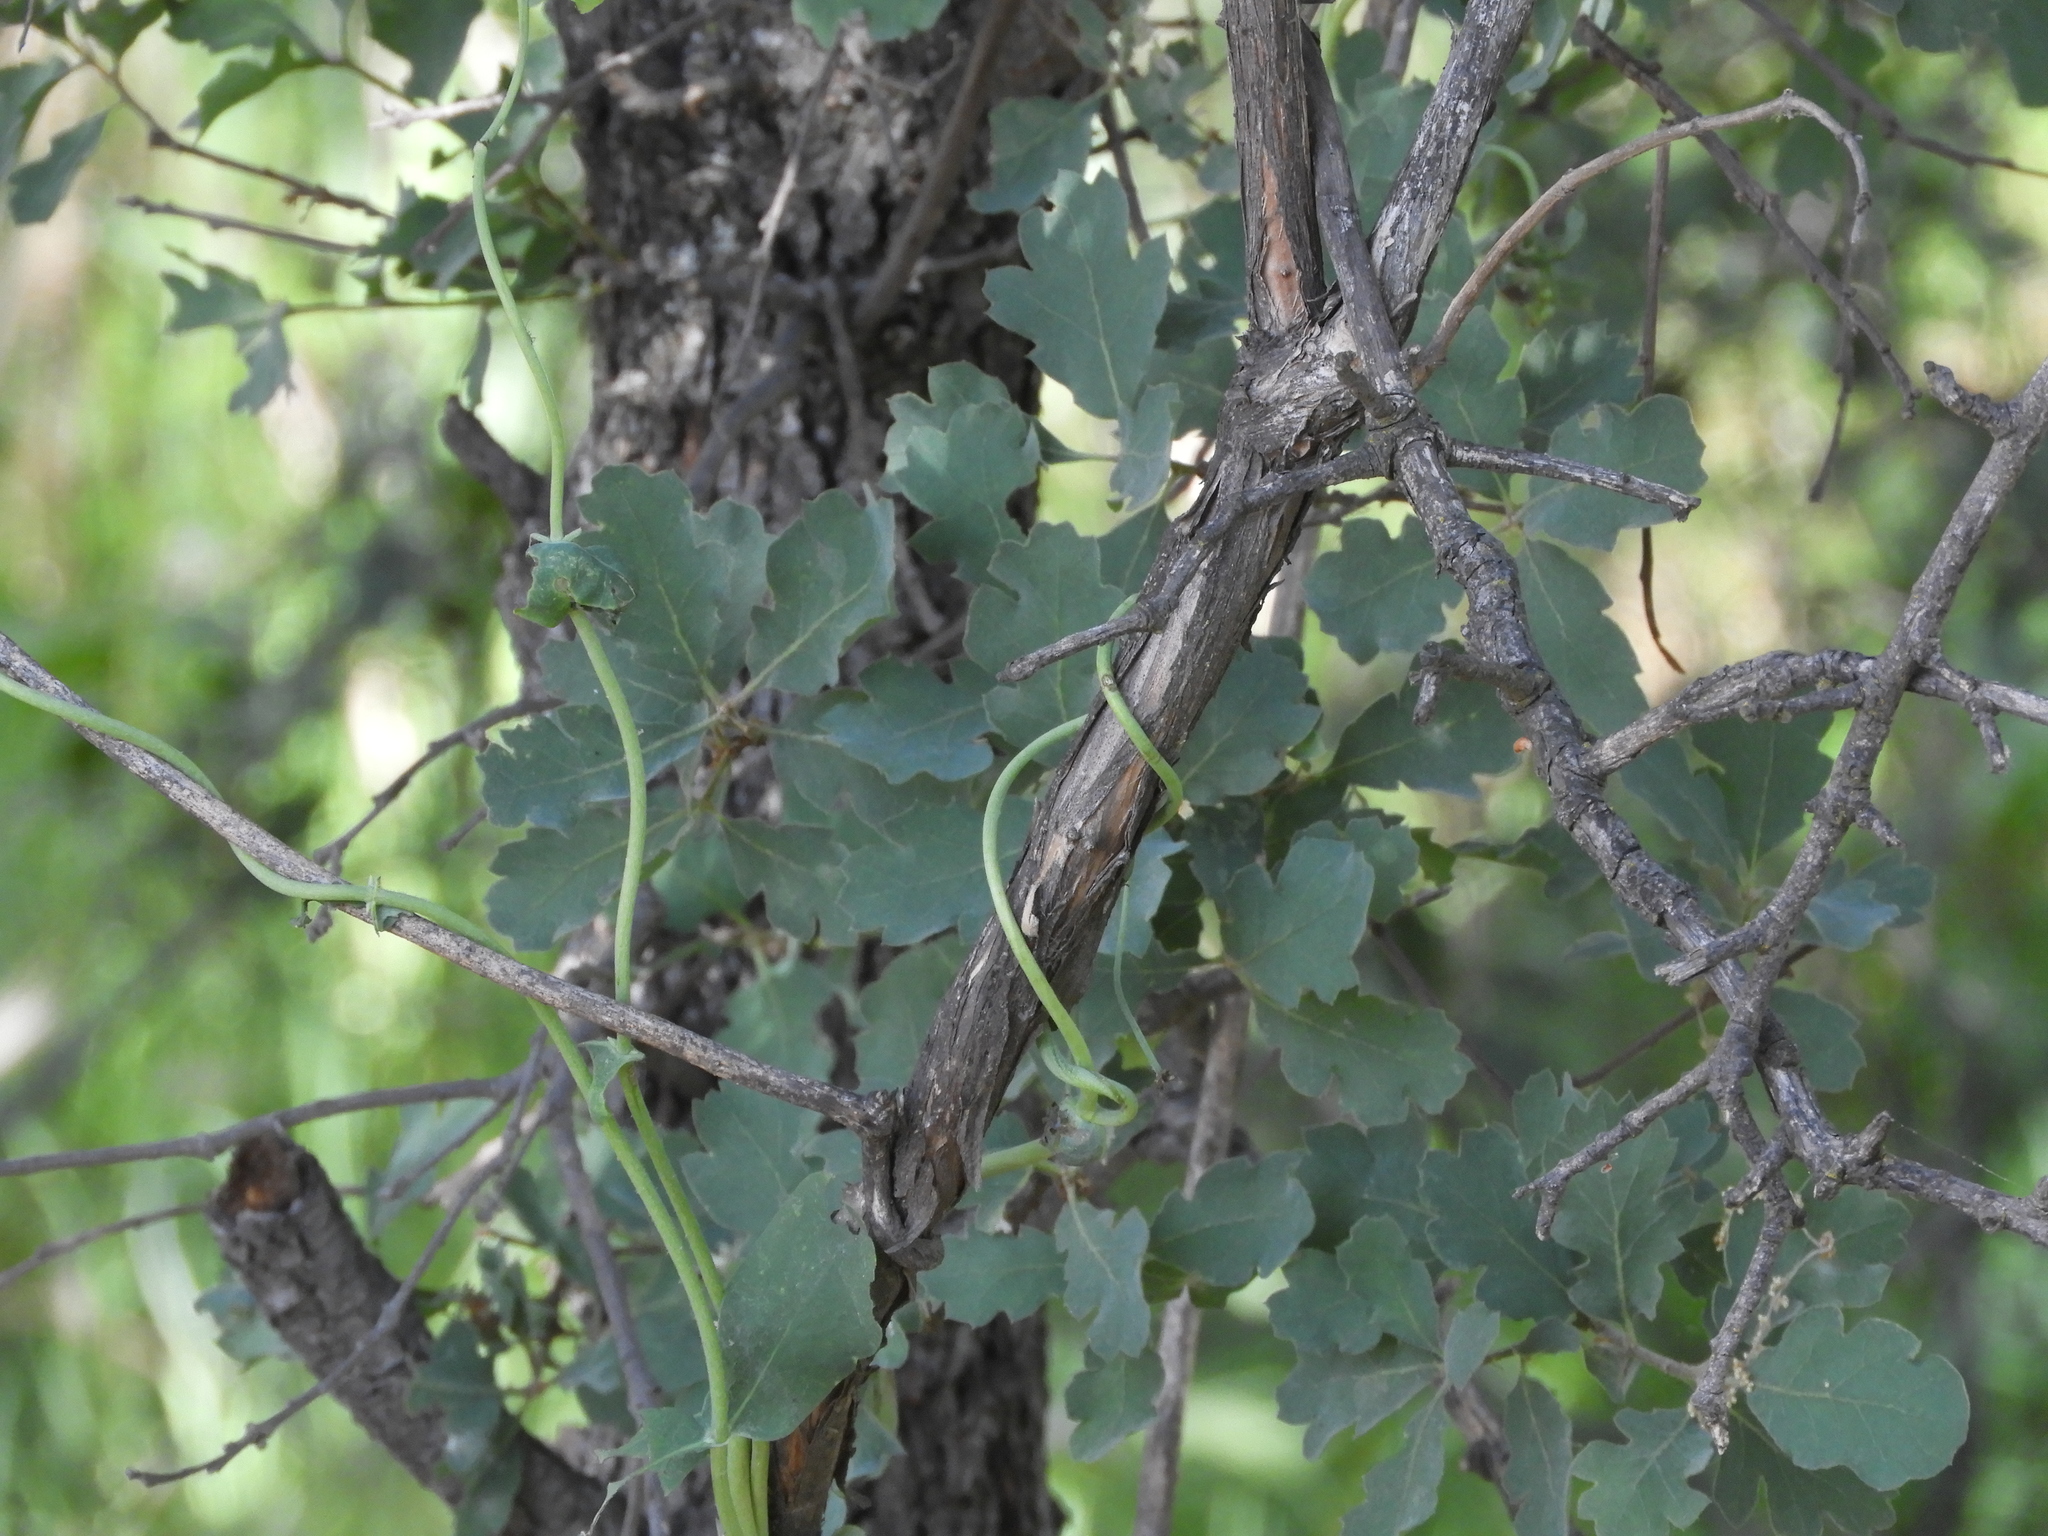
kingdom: Plantae
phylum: Tracheophyta
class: Magnoliopsida
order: Dipsacales
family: Caprifoliaceae
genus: Lonicera
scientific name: Lonicera interrupta
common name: Chaparral honeysuckle
